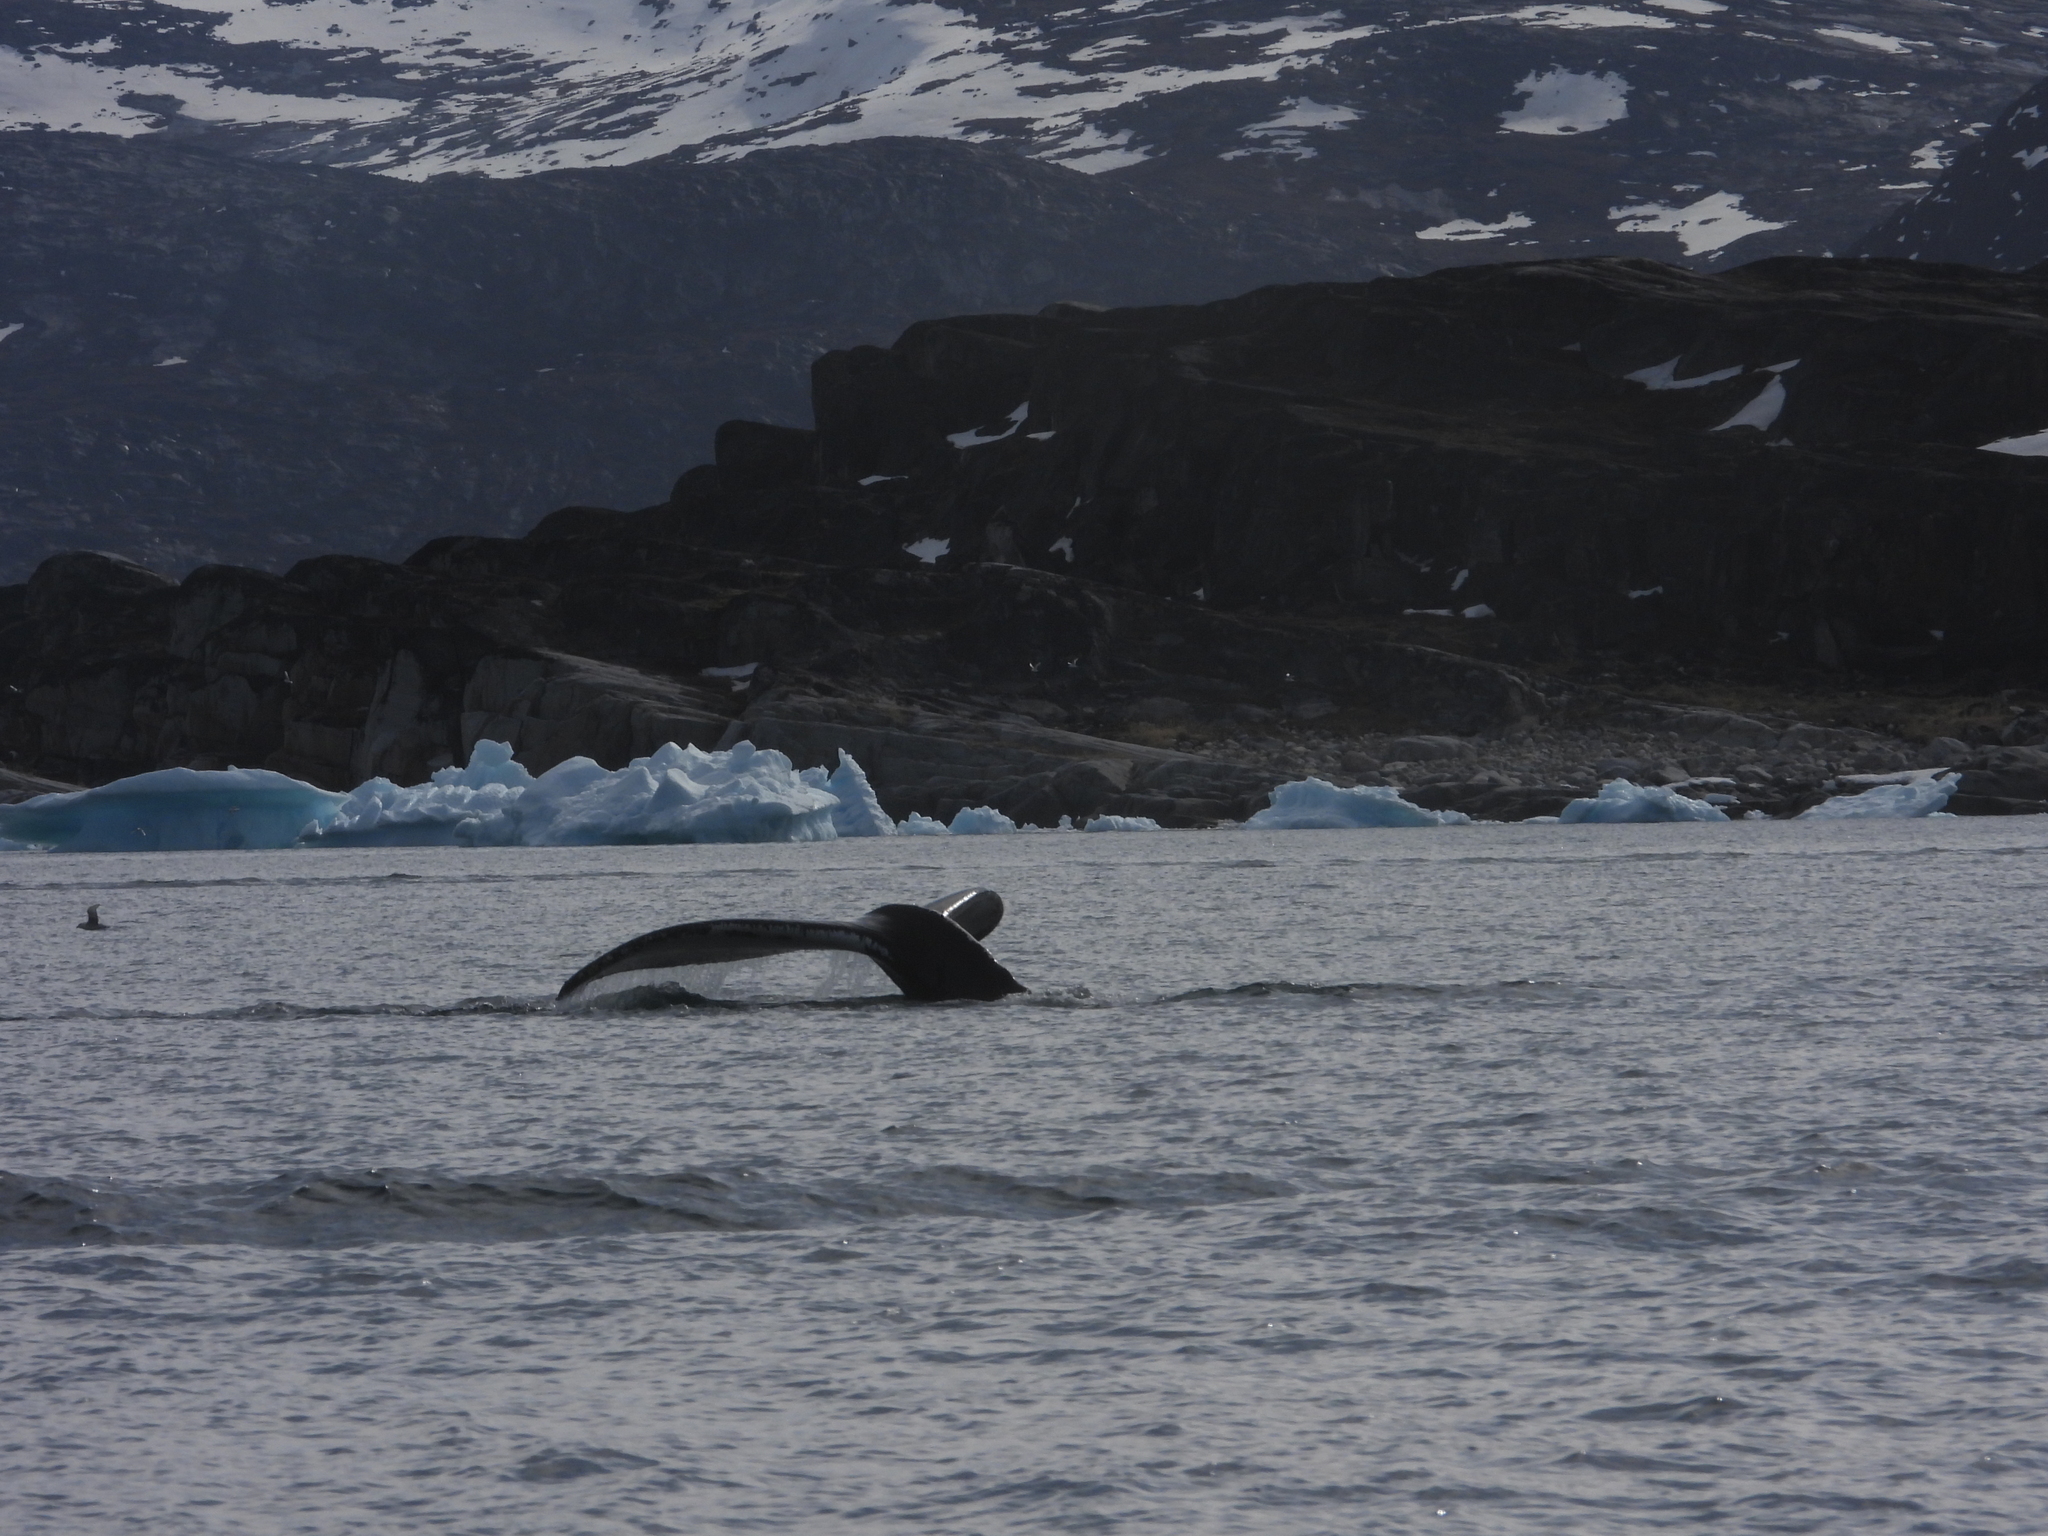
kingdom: Animalia
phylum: Chordata
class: Mammalia
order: Cetacea
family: Balaenopteridae
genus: Megaptera
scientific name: Megaptera novaeangliae
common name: Humpback whale
